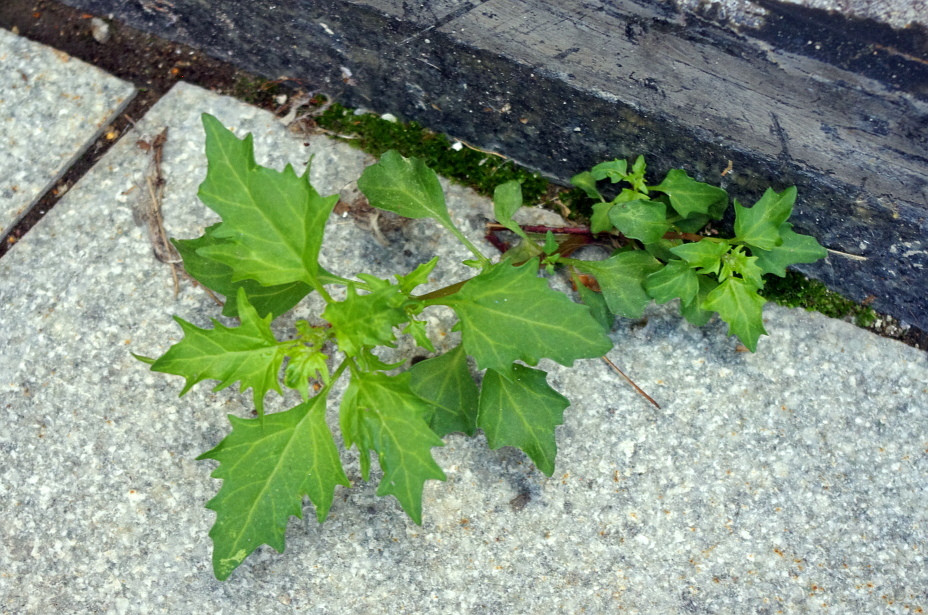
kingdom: Plantae
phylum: Tracheophyta
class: Magnoliopsida
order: Caryophyllales
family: Amaranthaceae
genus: Oxybasis
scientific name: Oxybasis rubra
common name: Red goosefoot
